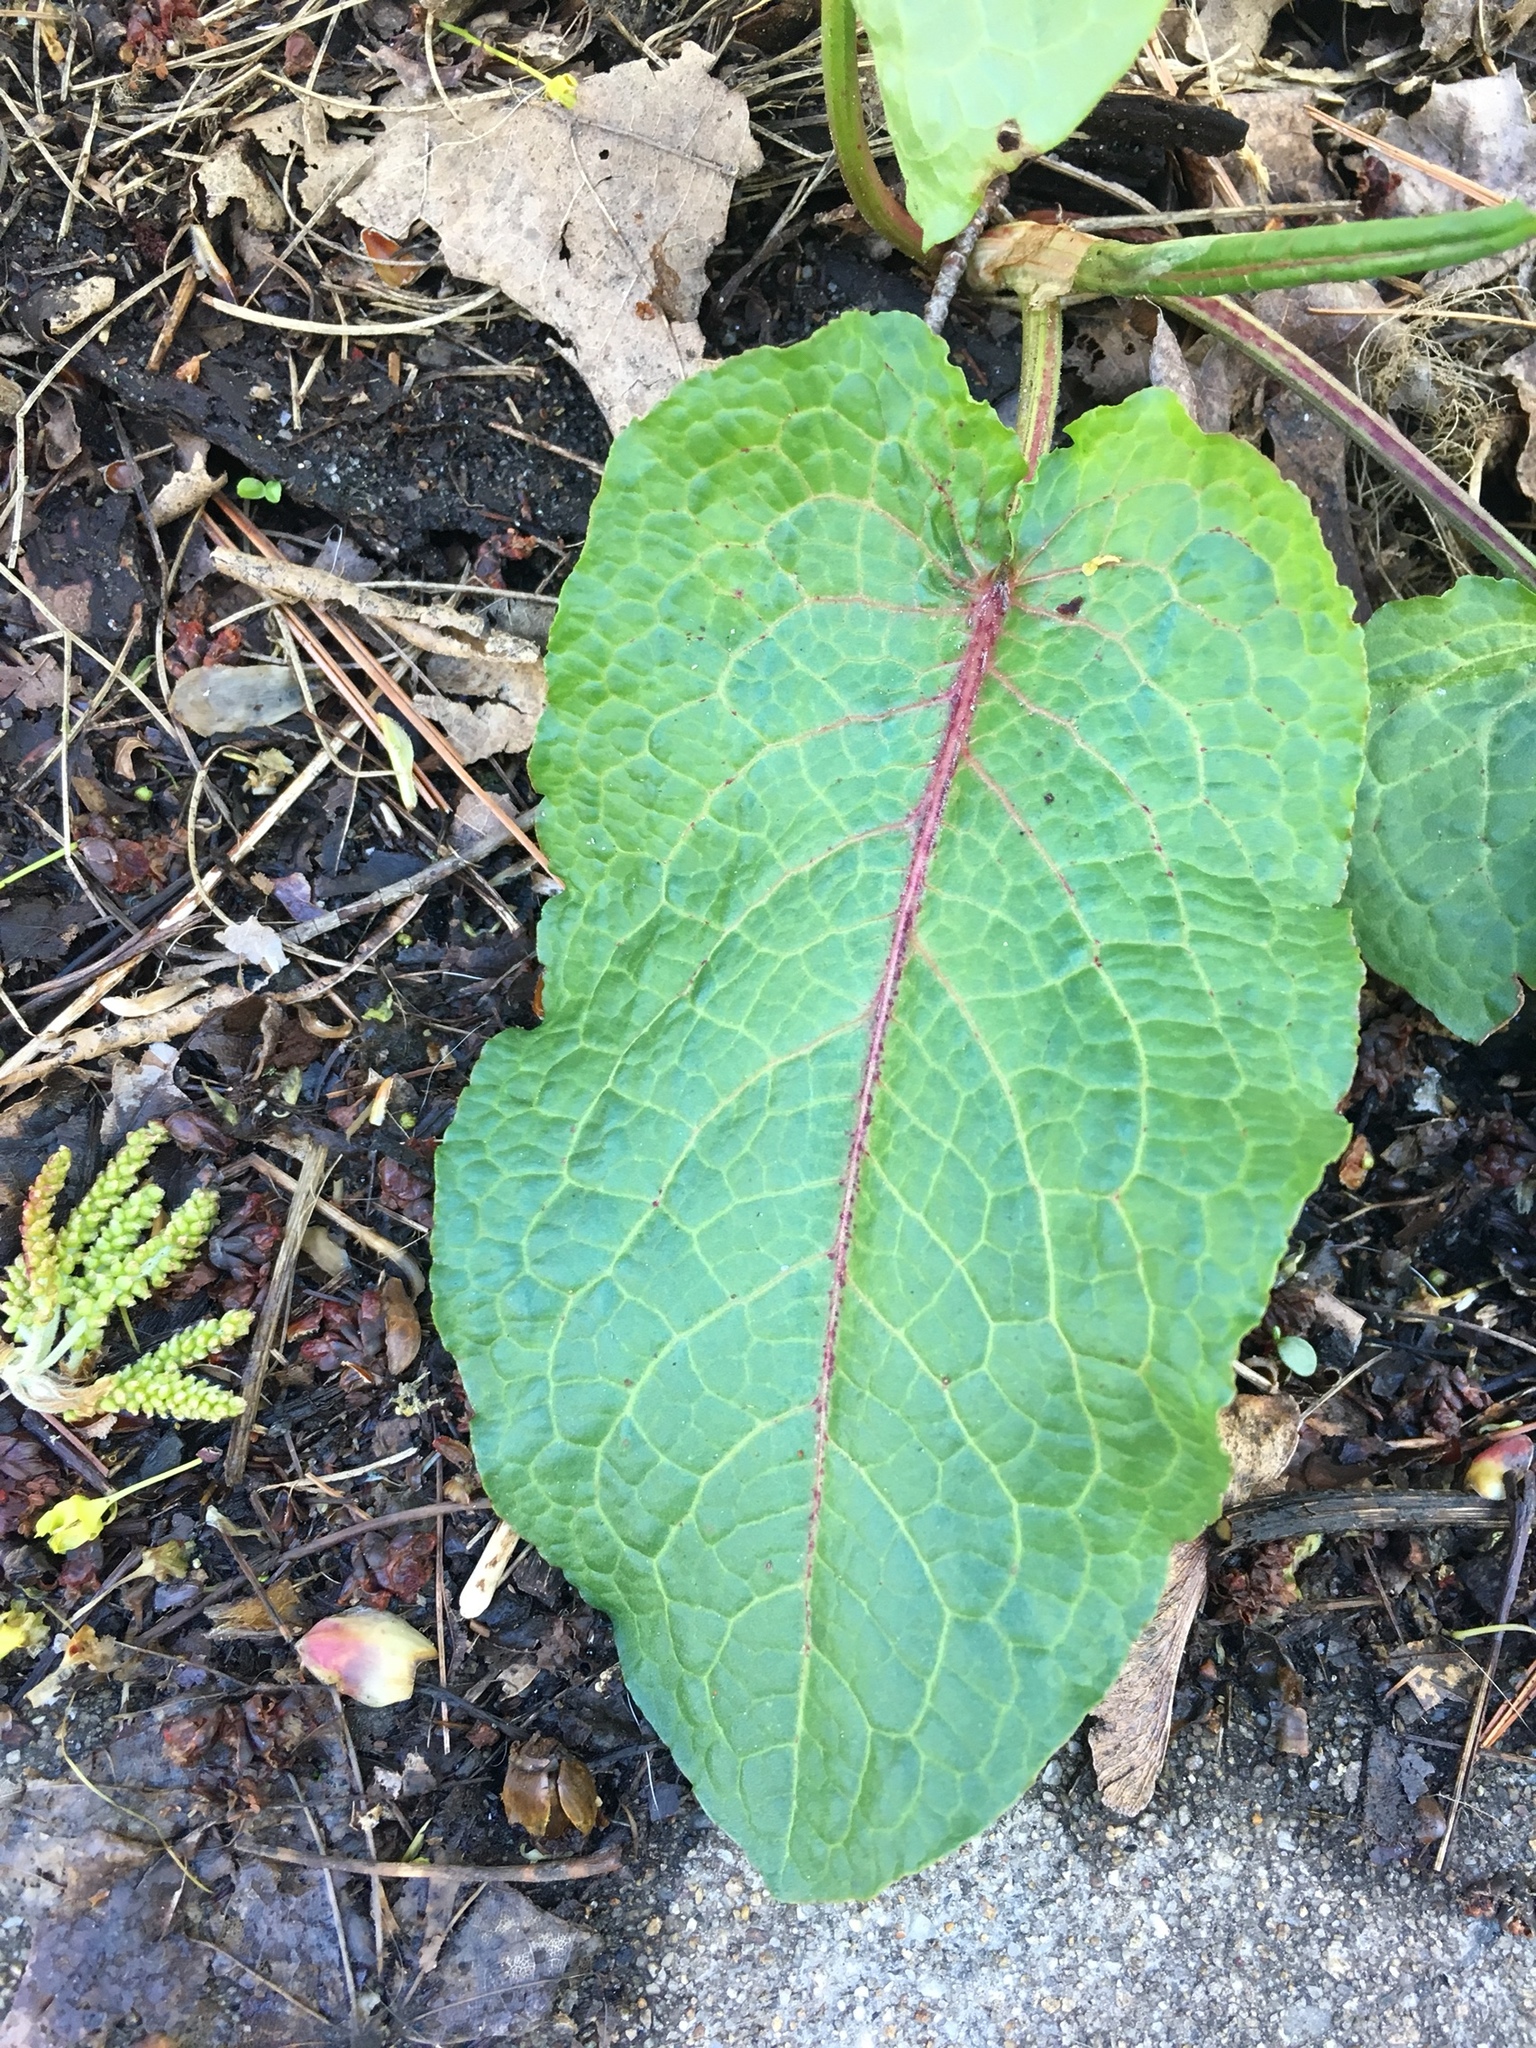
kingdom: Plantae
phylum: Tracheophyta
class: Magnoliopsida
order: Caryophyllales
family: Polygonaceae
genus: Rumex
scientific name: Rumex obtusifolius
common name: Bitter dock
